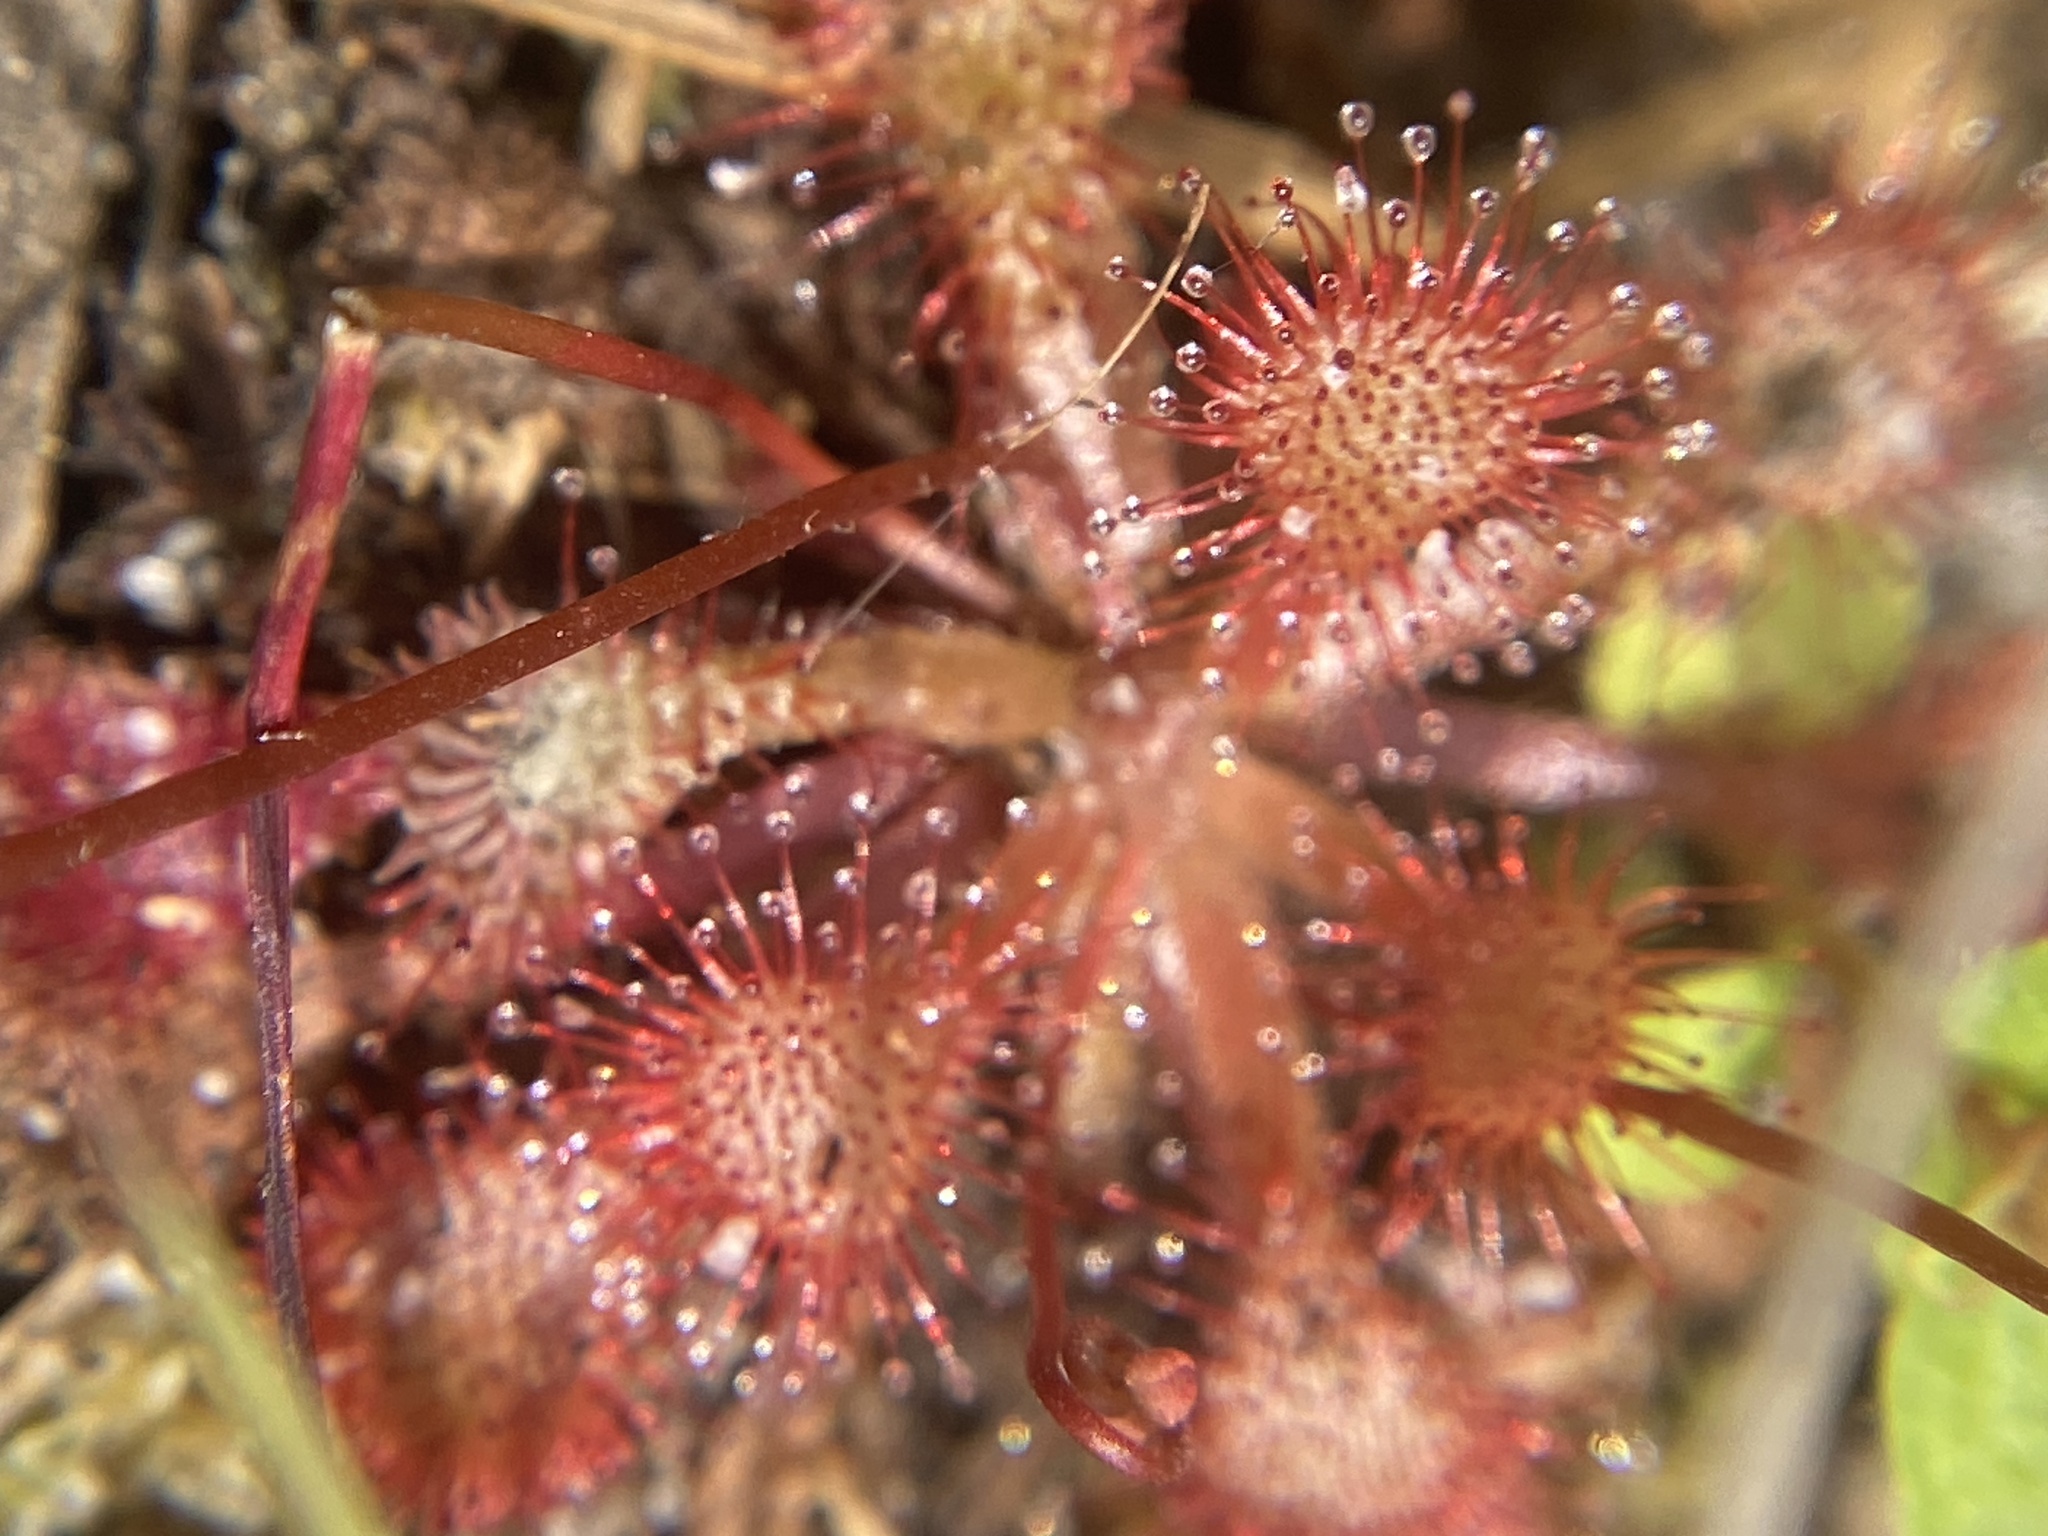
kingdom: Plantae
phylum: Tracheophyta
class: Magnoliopsida
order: Caryophyllales
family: Droseraceae
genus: Drosera
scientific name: Drosera capillaris
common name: Pink sundew
